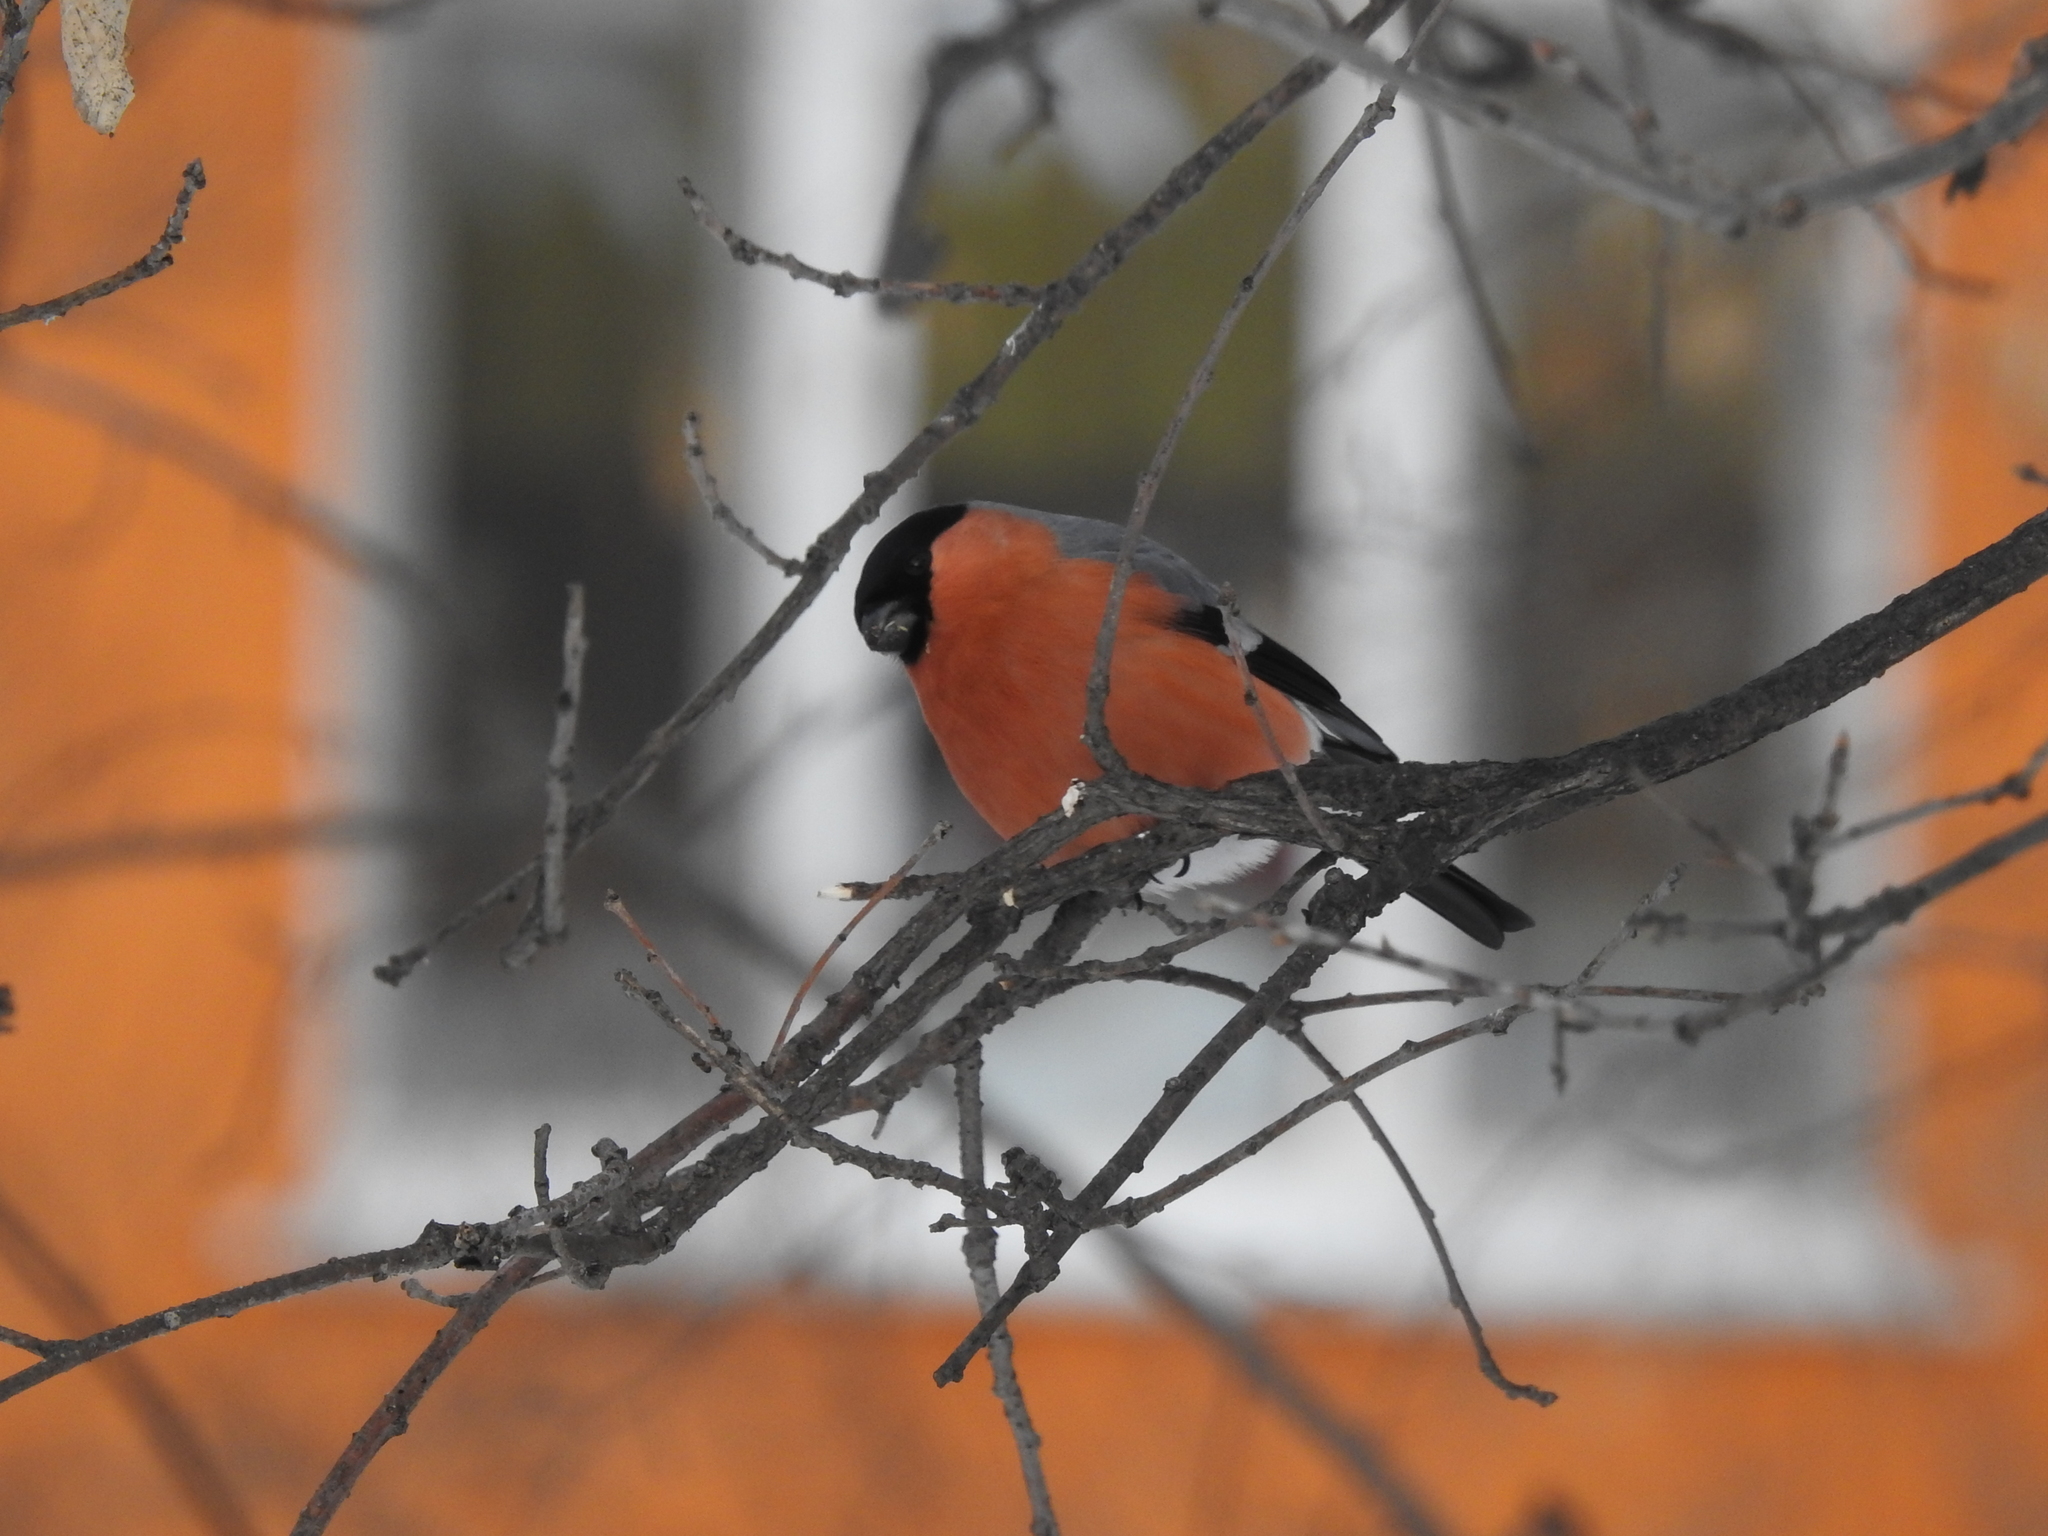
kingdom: Animalia
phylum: Chordata
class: Aves
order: Passeriformes
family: Fringillidae
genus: Pyrrhula
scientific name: Pyrrhula pyrrhula
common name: Eurasian bullfinch
